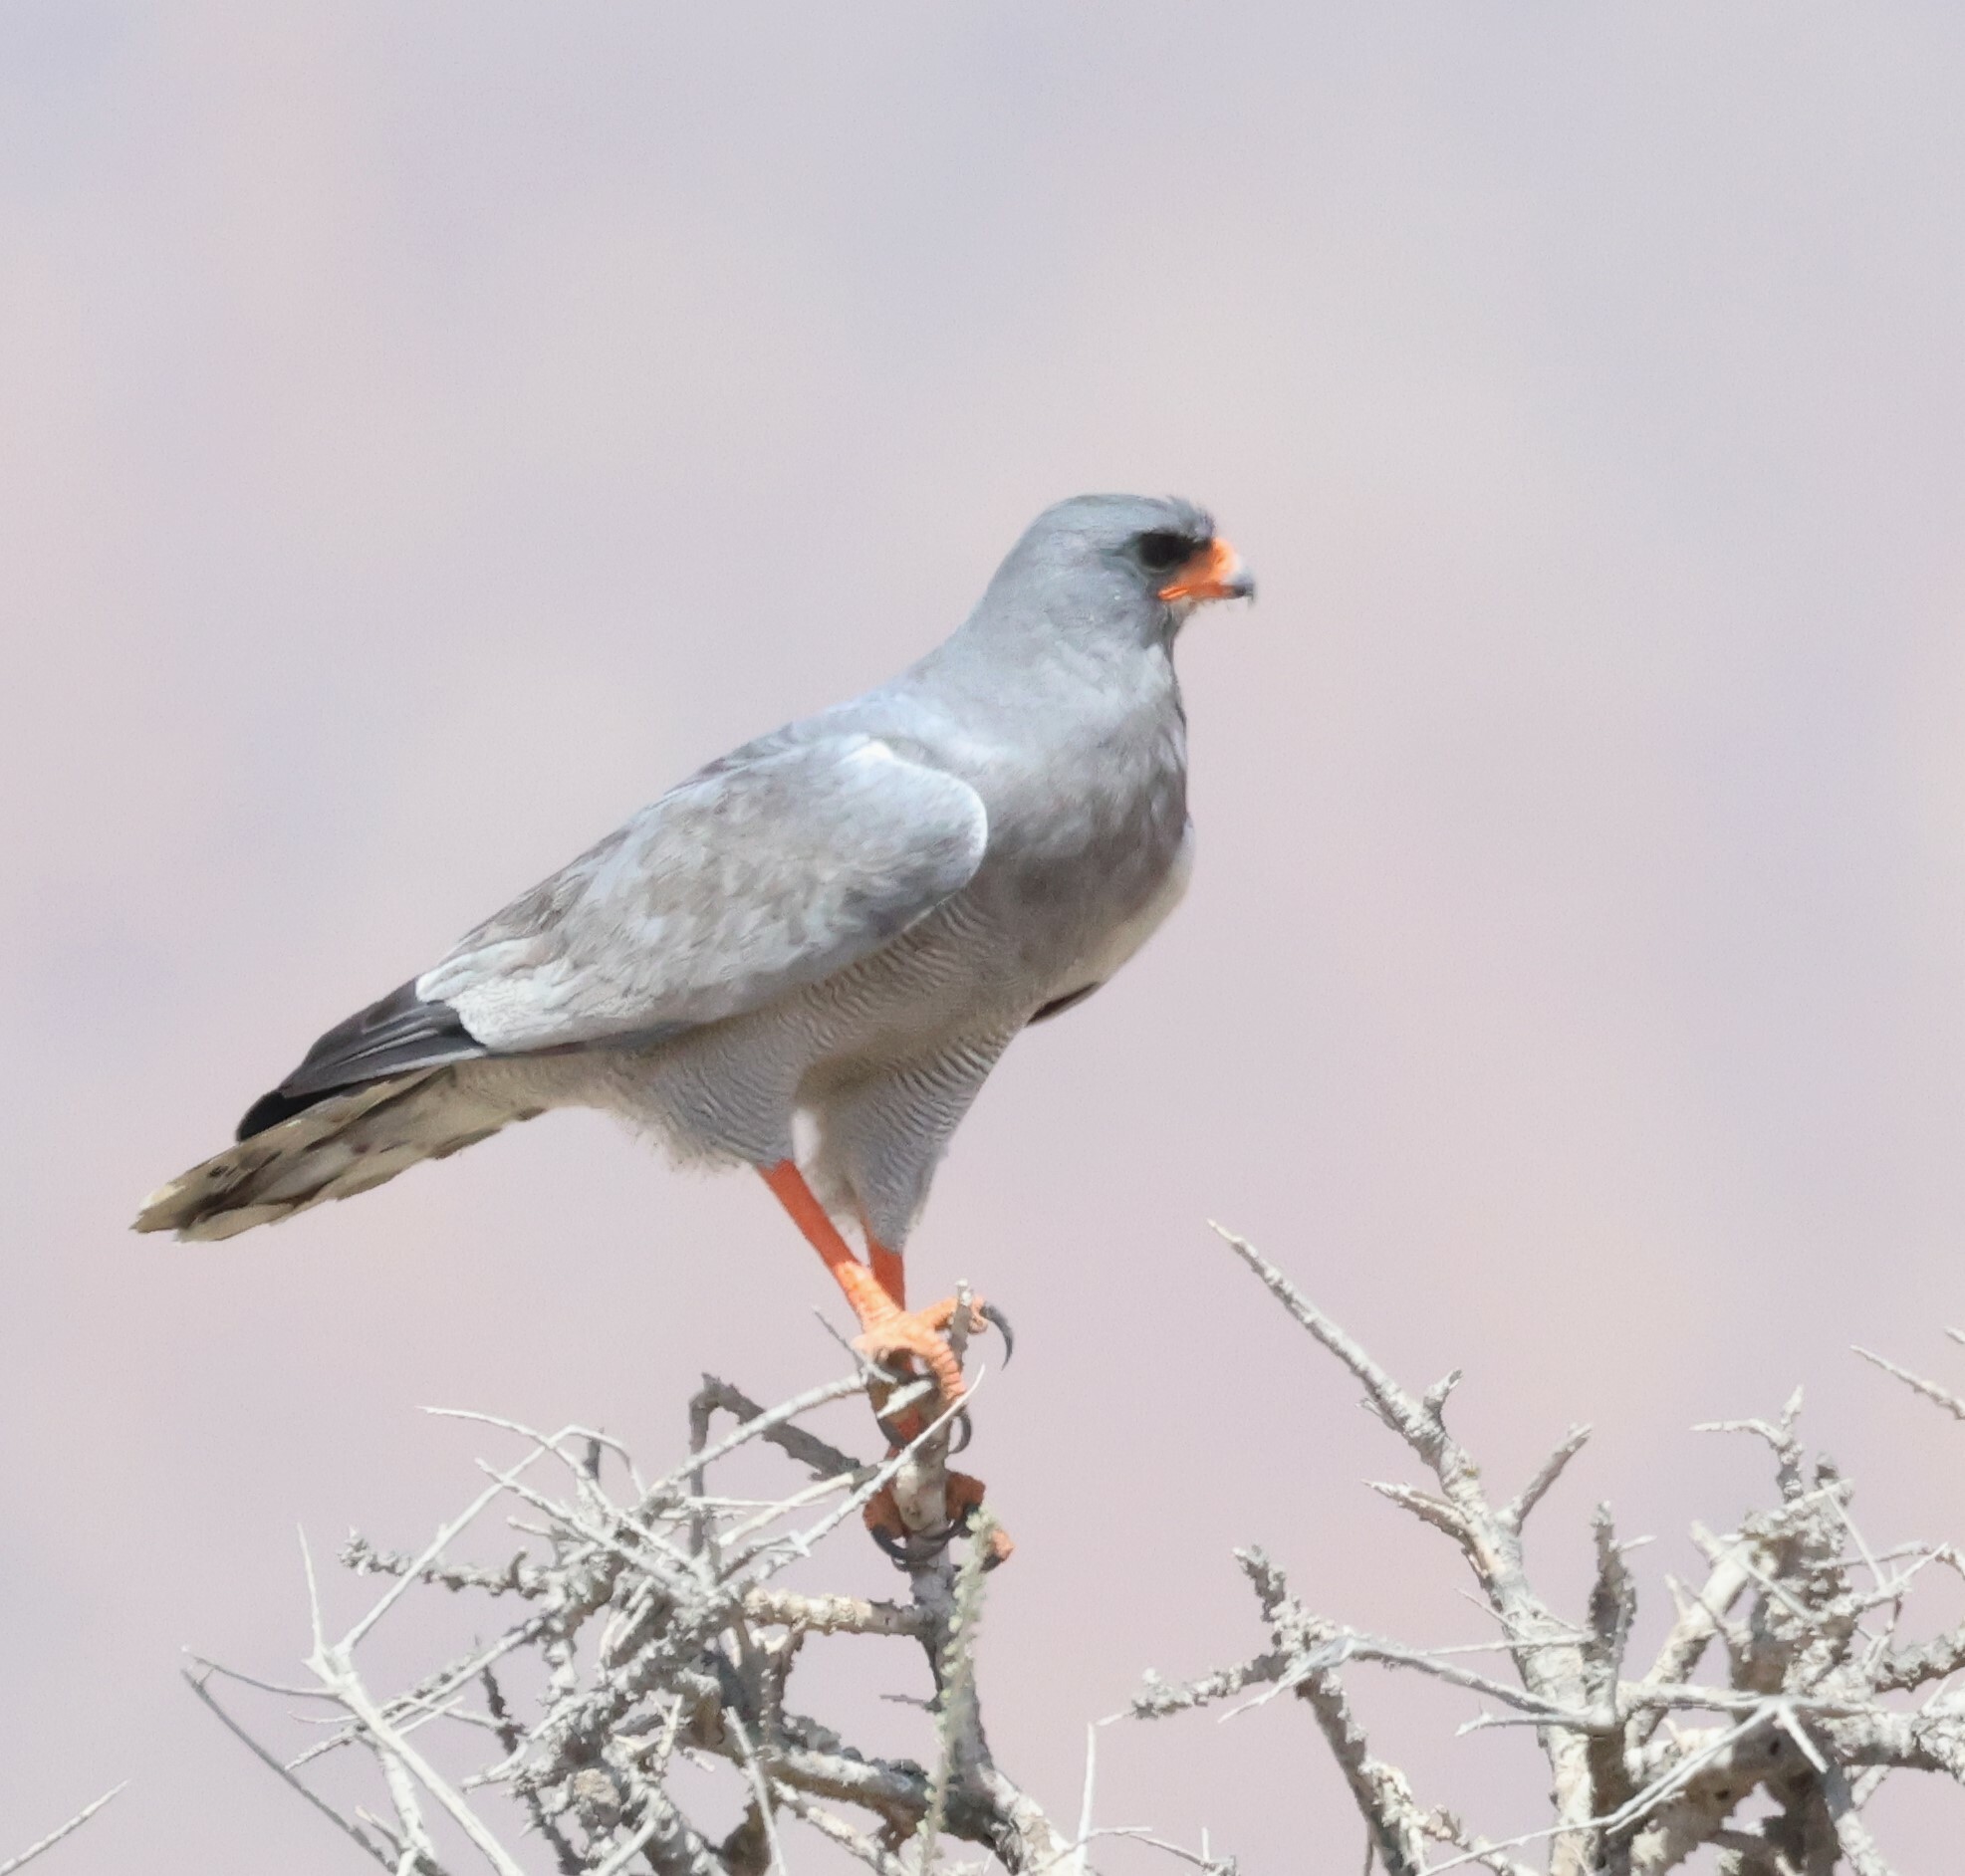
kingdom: Animalia
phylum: Chordata
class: Aves
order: Accipitriformes
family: Accipitridae
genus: Melierax
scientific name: Melierax canorus
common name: Pale chanting-goshawk
